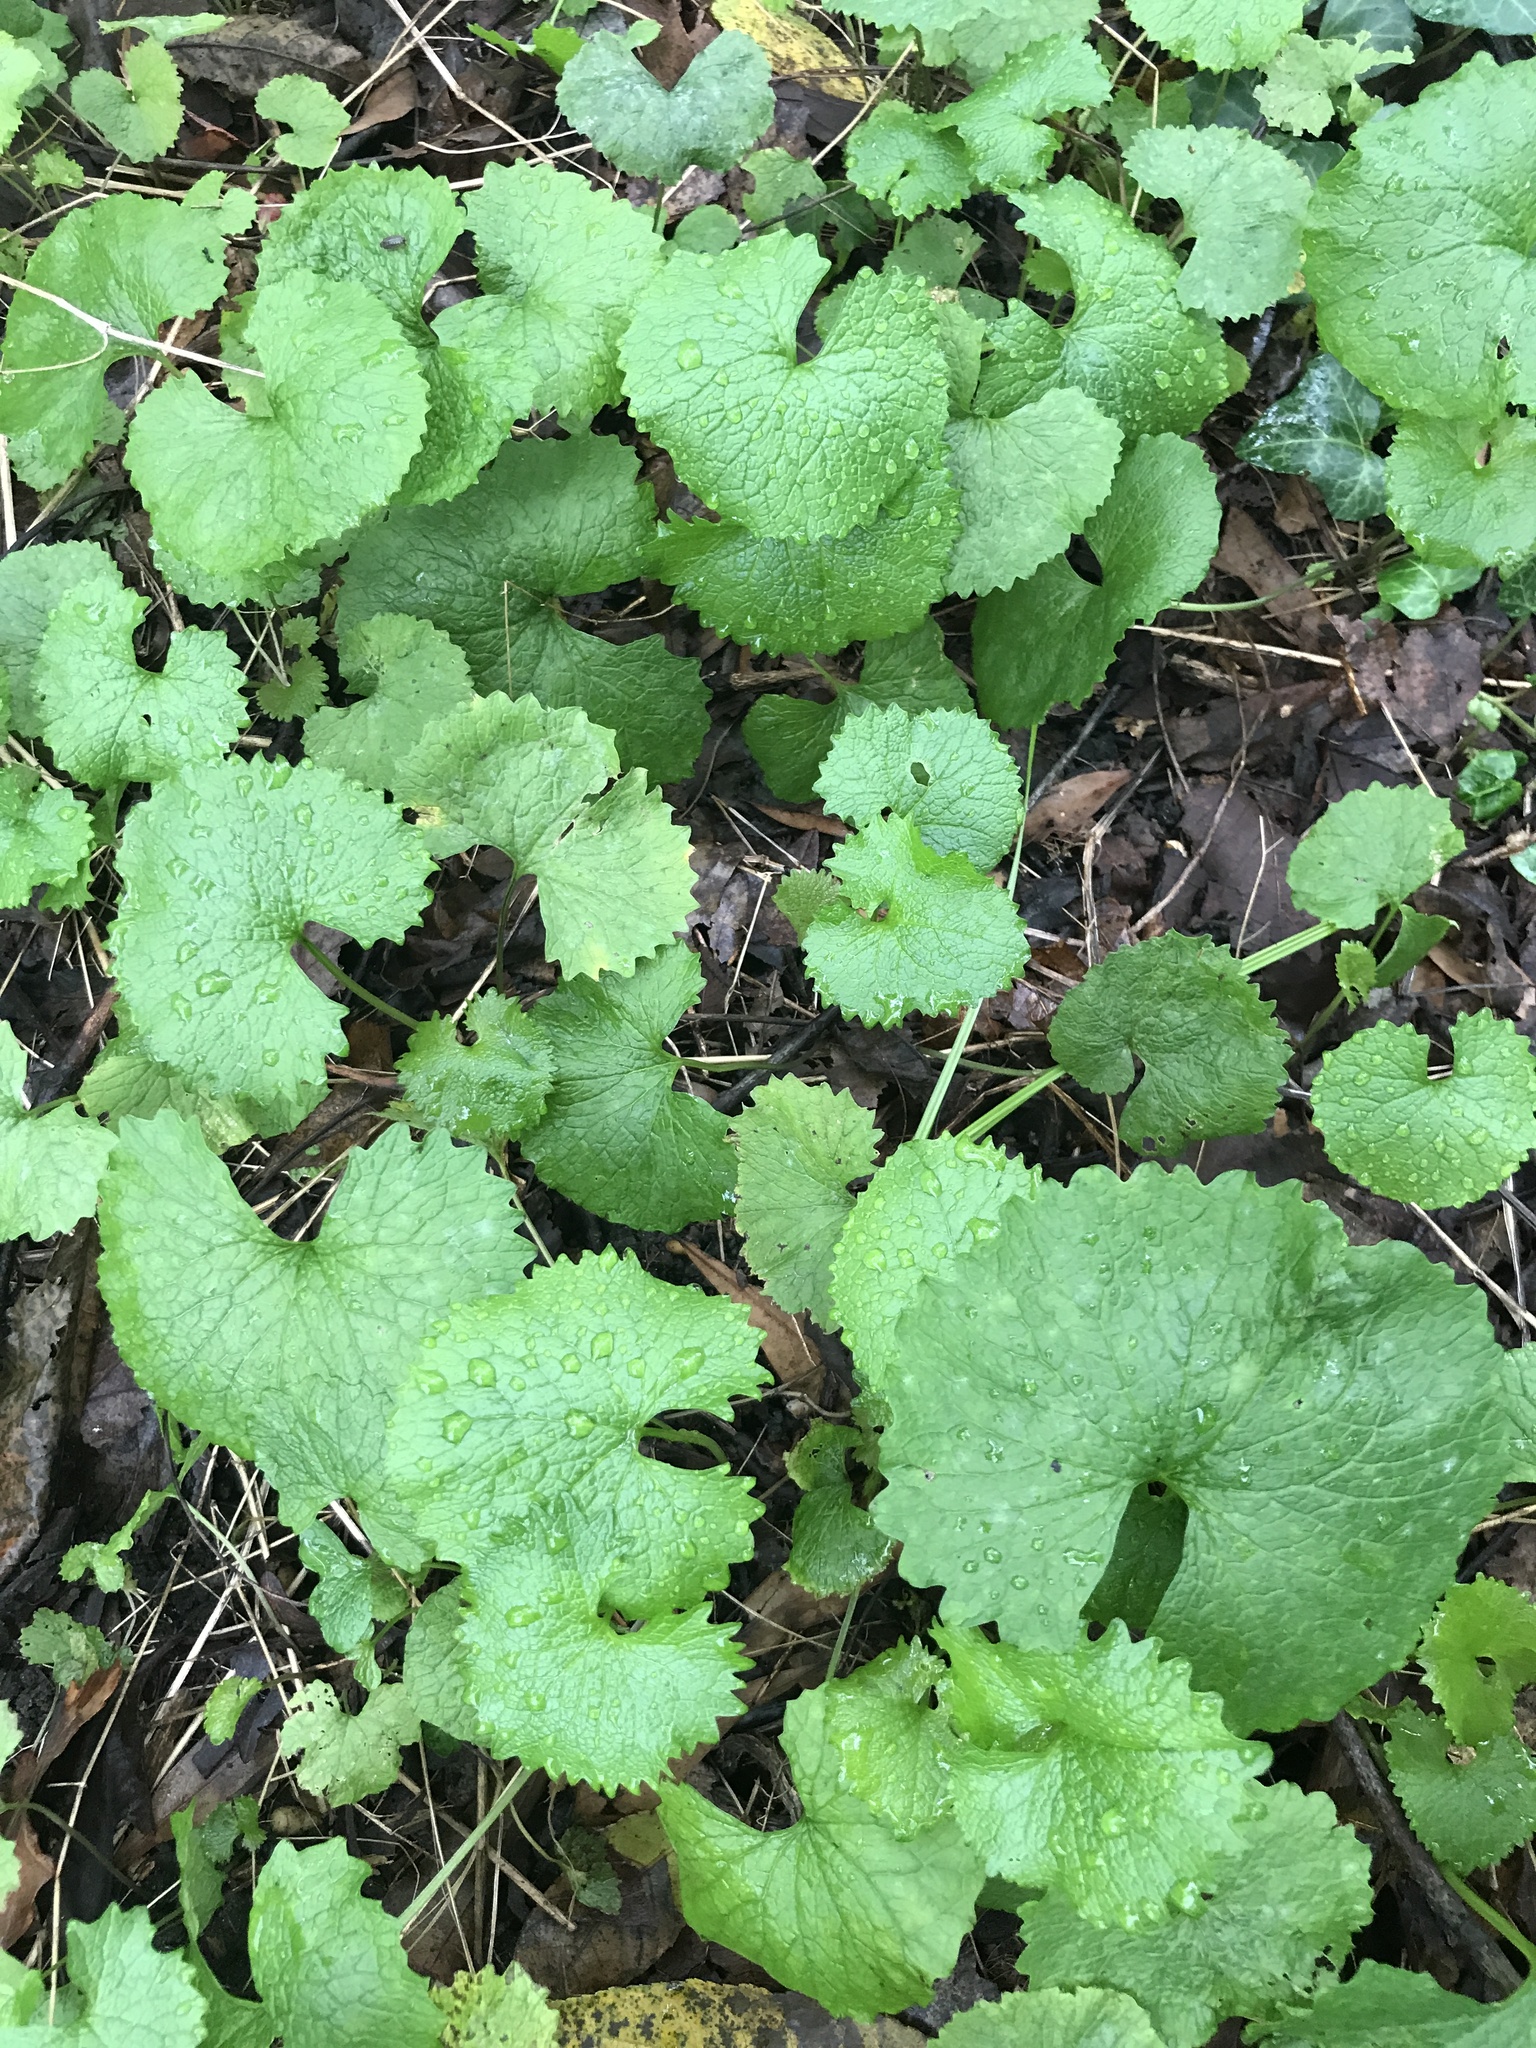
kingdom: Plantae
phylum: Tracheophyta
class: Magnoliopsida
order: Brassicales
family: Brassicaceae
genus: Alliaria
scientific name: Alliaria petiolata
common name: Garlic mustard
